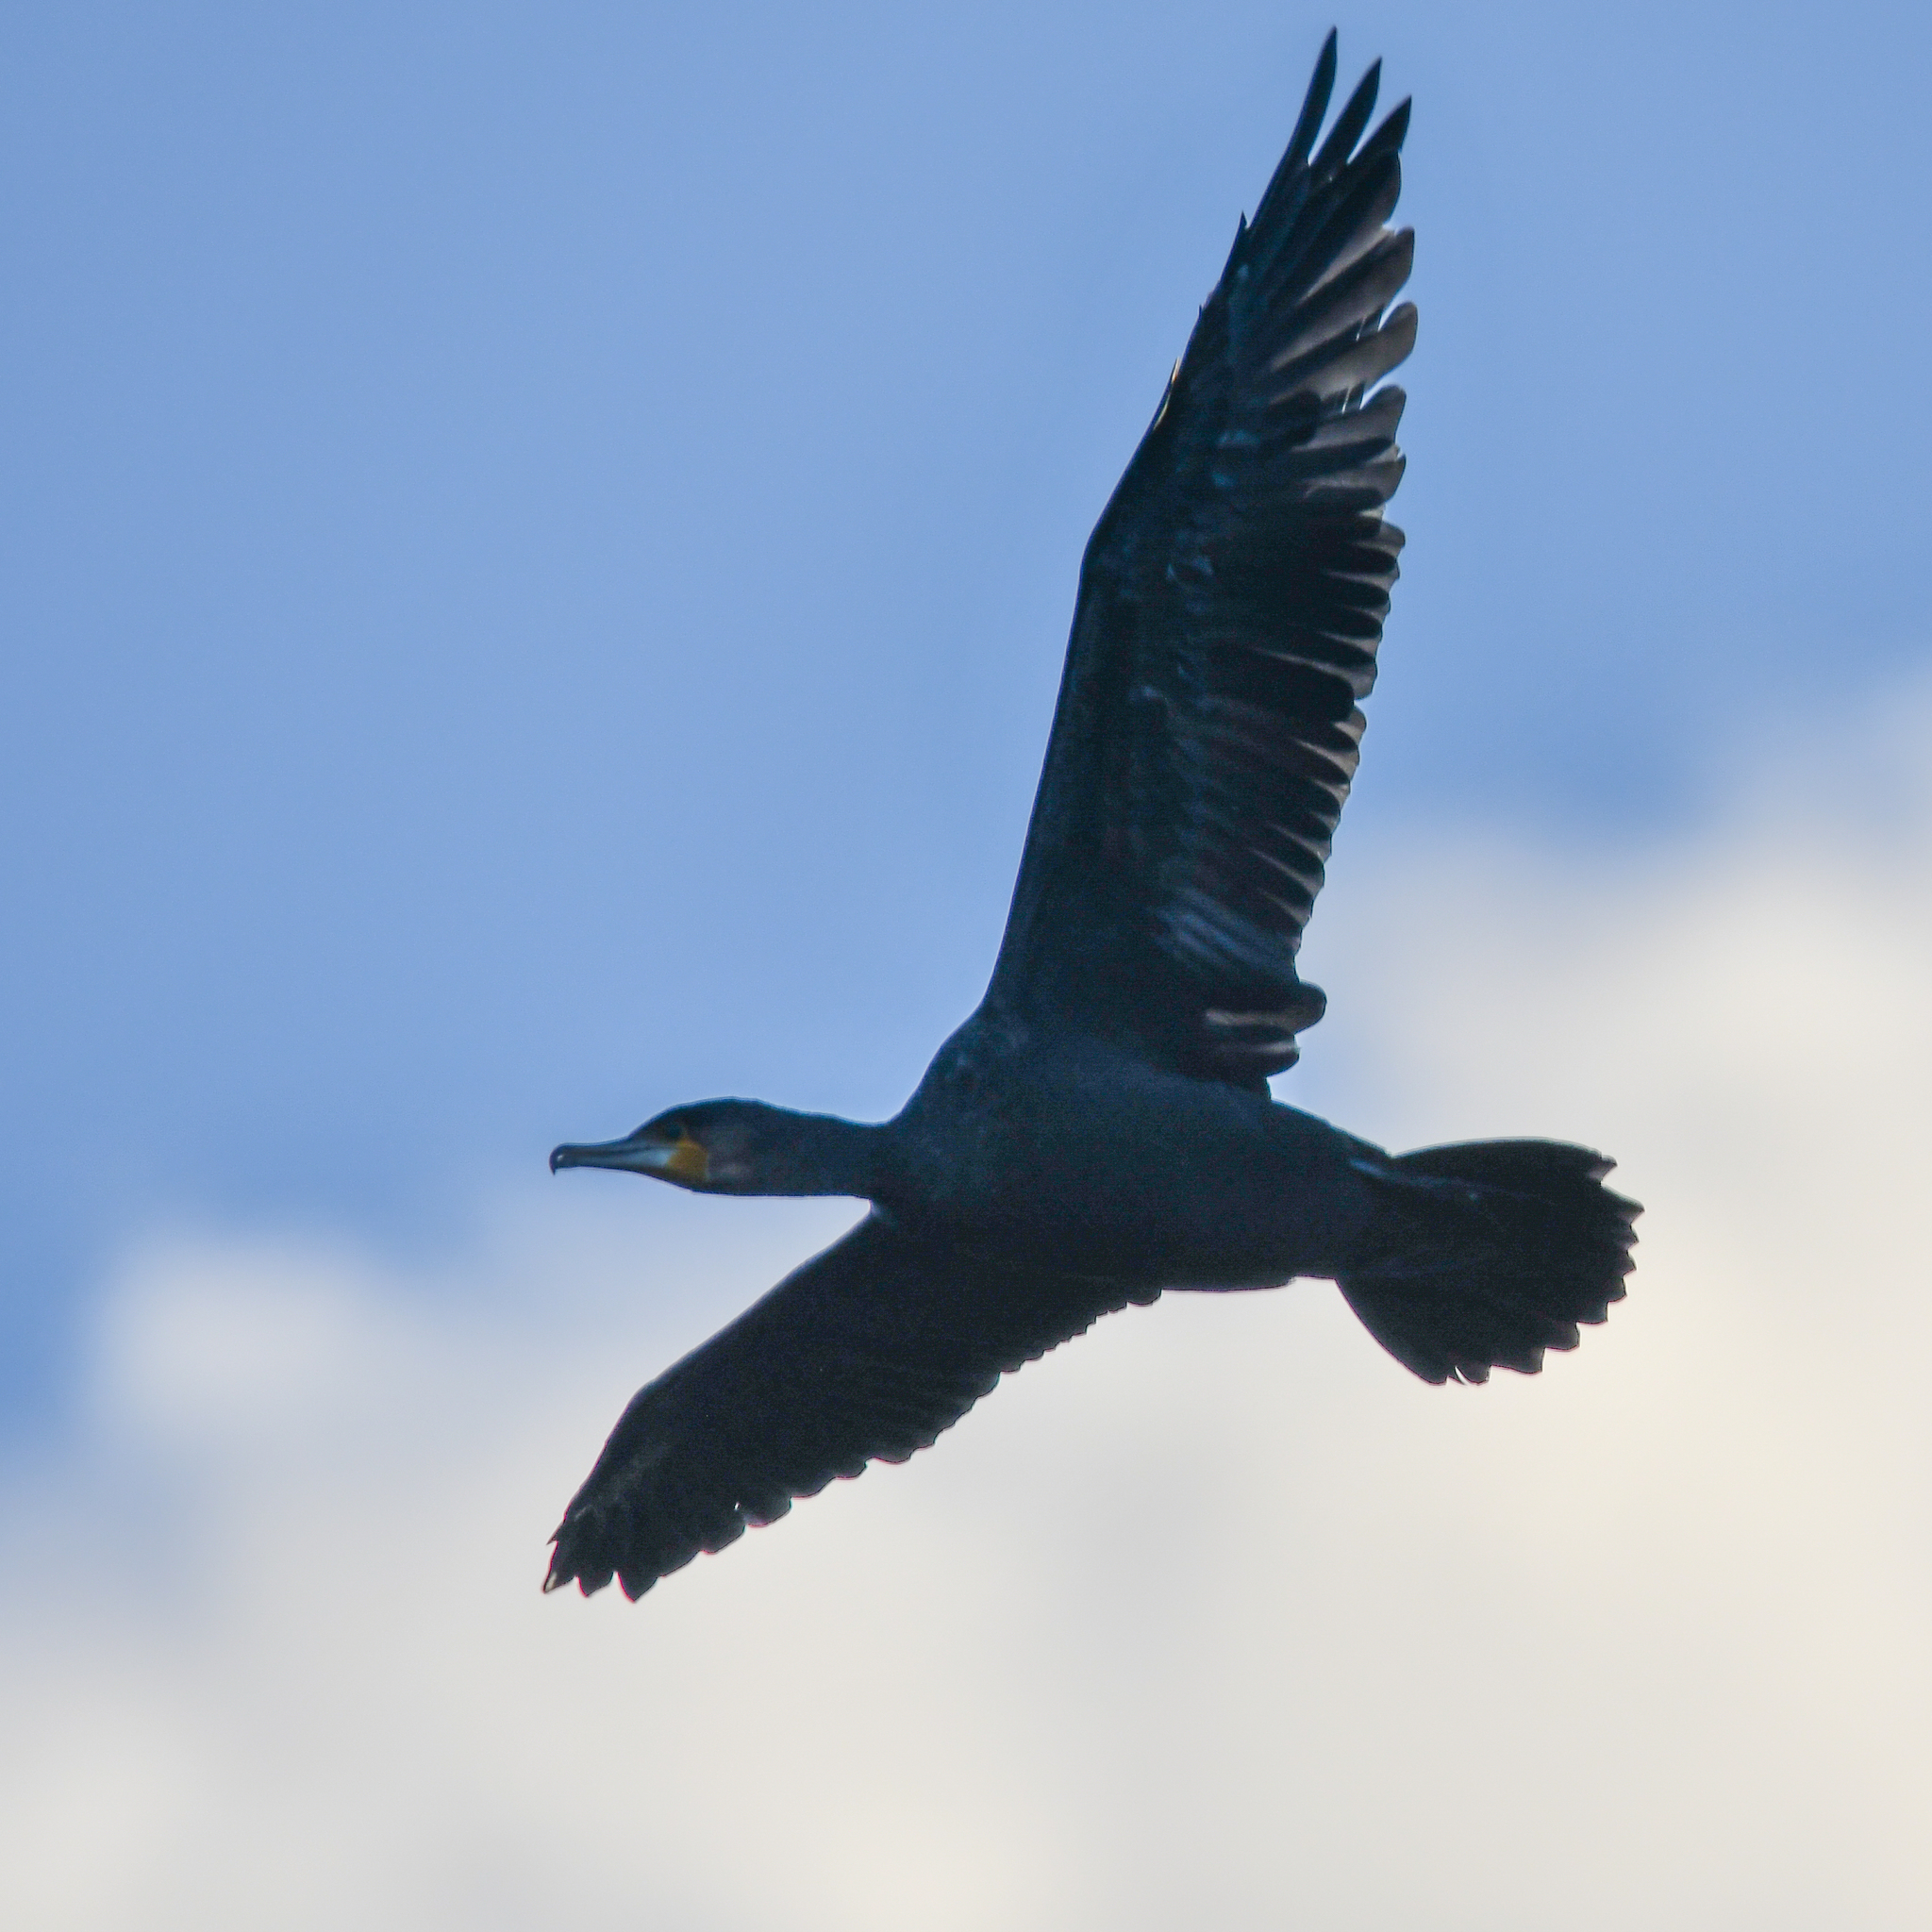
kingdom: Animalia
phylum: Chordata
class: Aves
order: Suliformes
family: Phalacrocoracidae
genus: Phalacrocorax
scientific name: Phalacrocorax carbo
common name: Great cormorant
